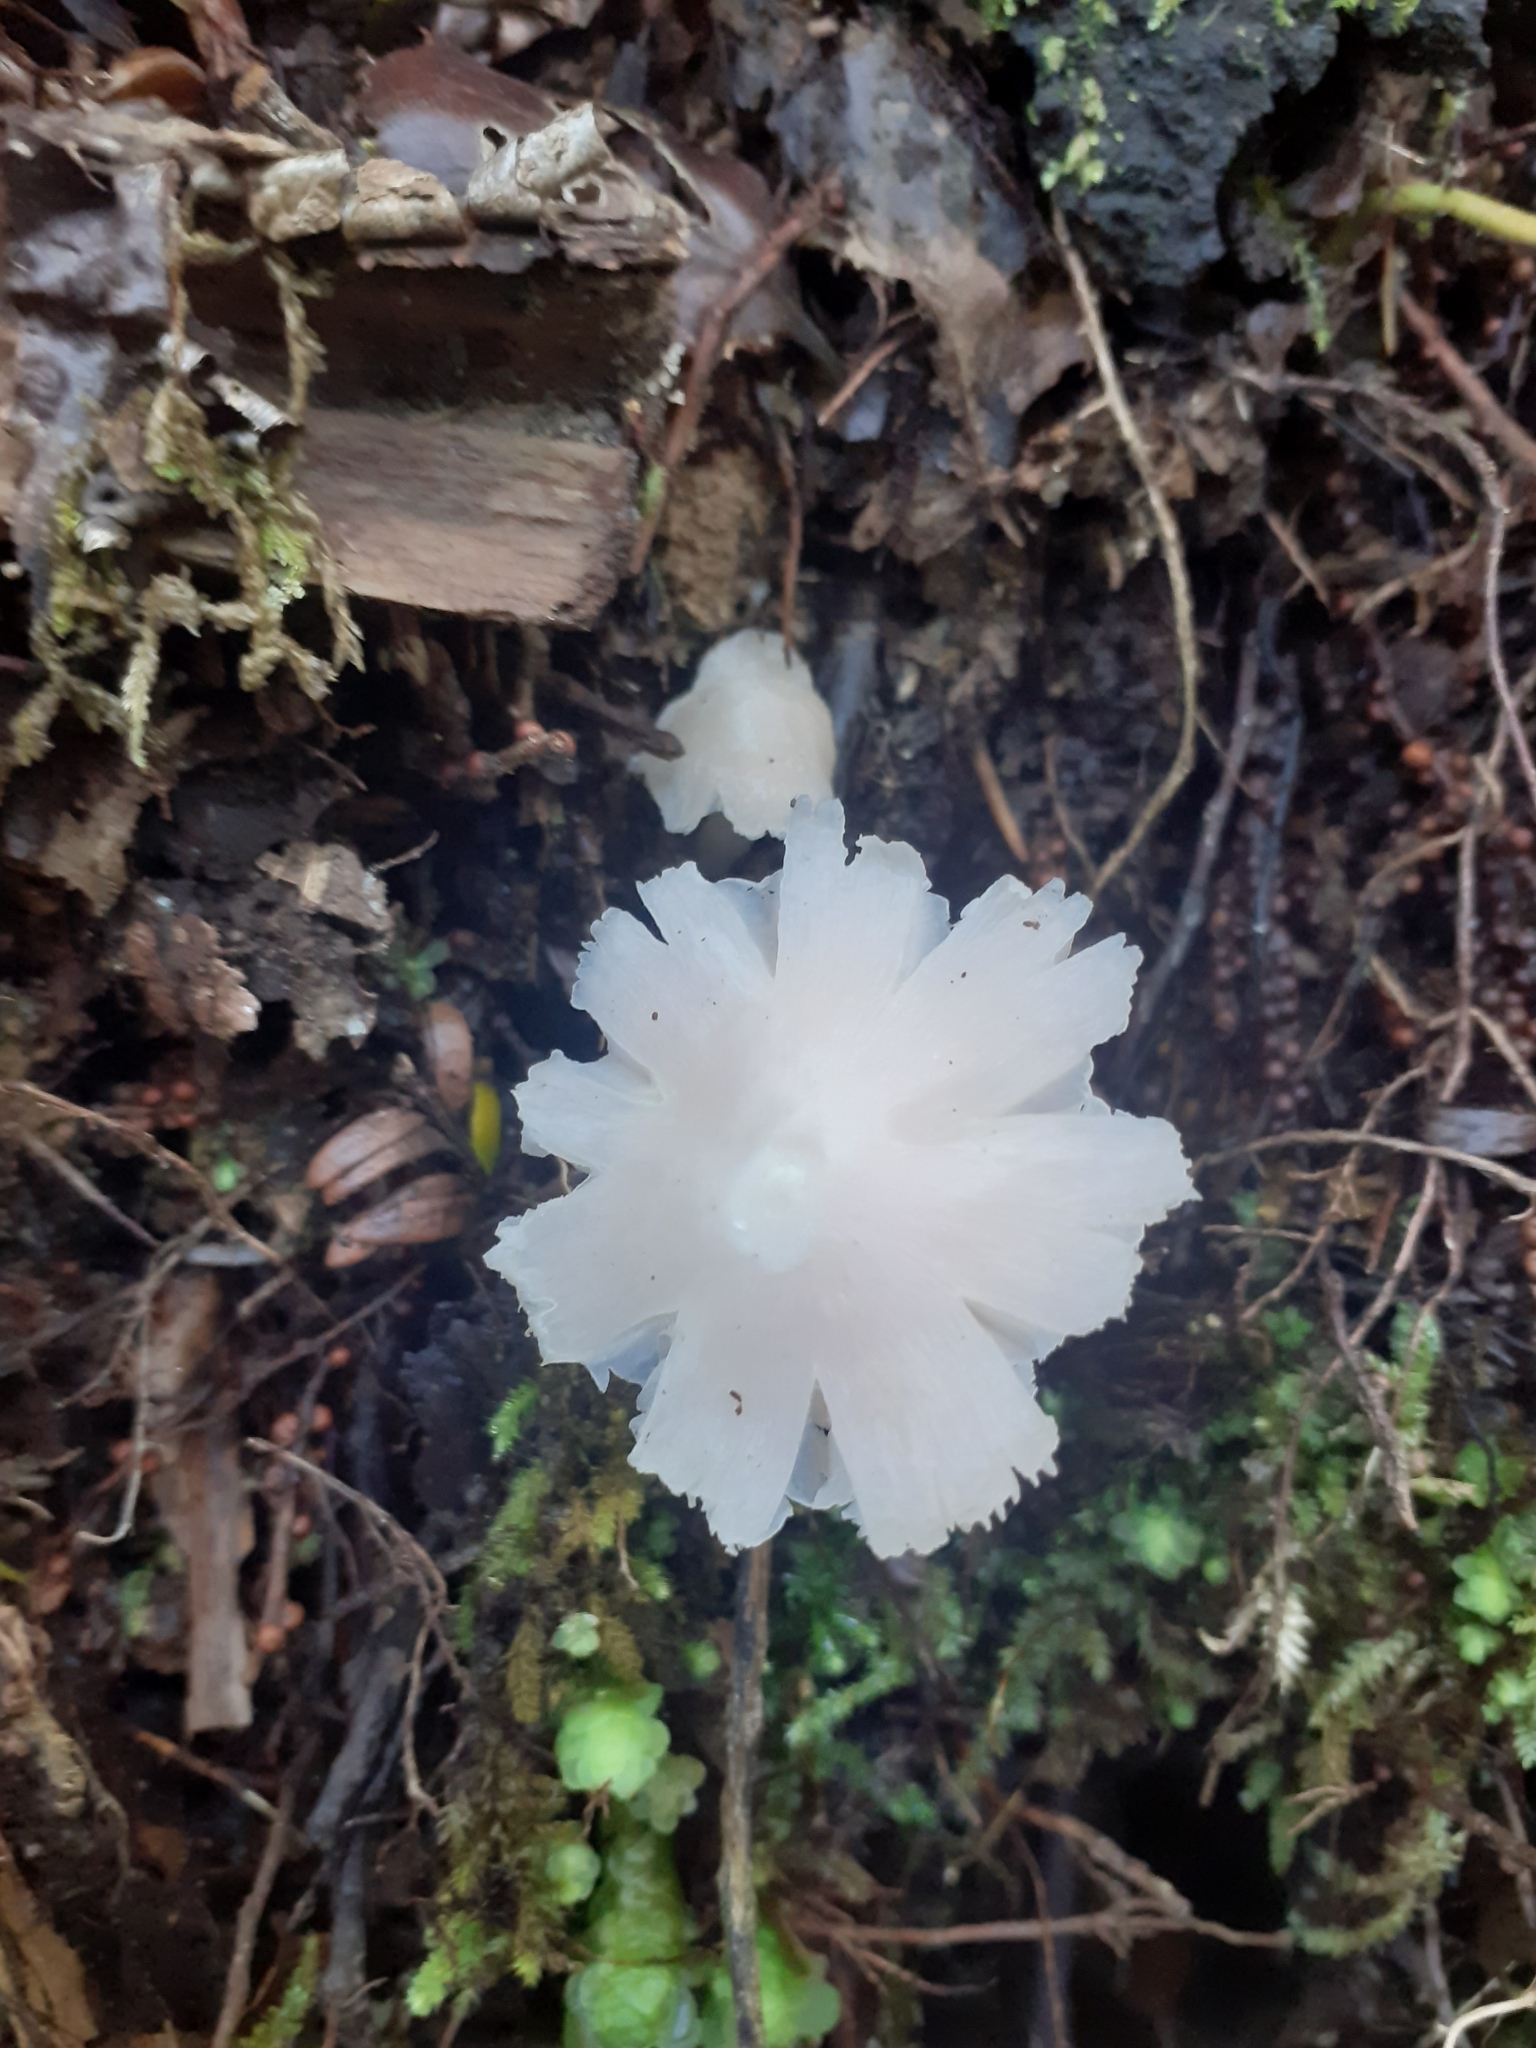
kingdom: Fungi
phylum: Basidiomycota
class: Agaricomycetes
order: Agaricales
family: Hygrophoraceae
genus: Humidicutis
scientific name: Humidicutis
